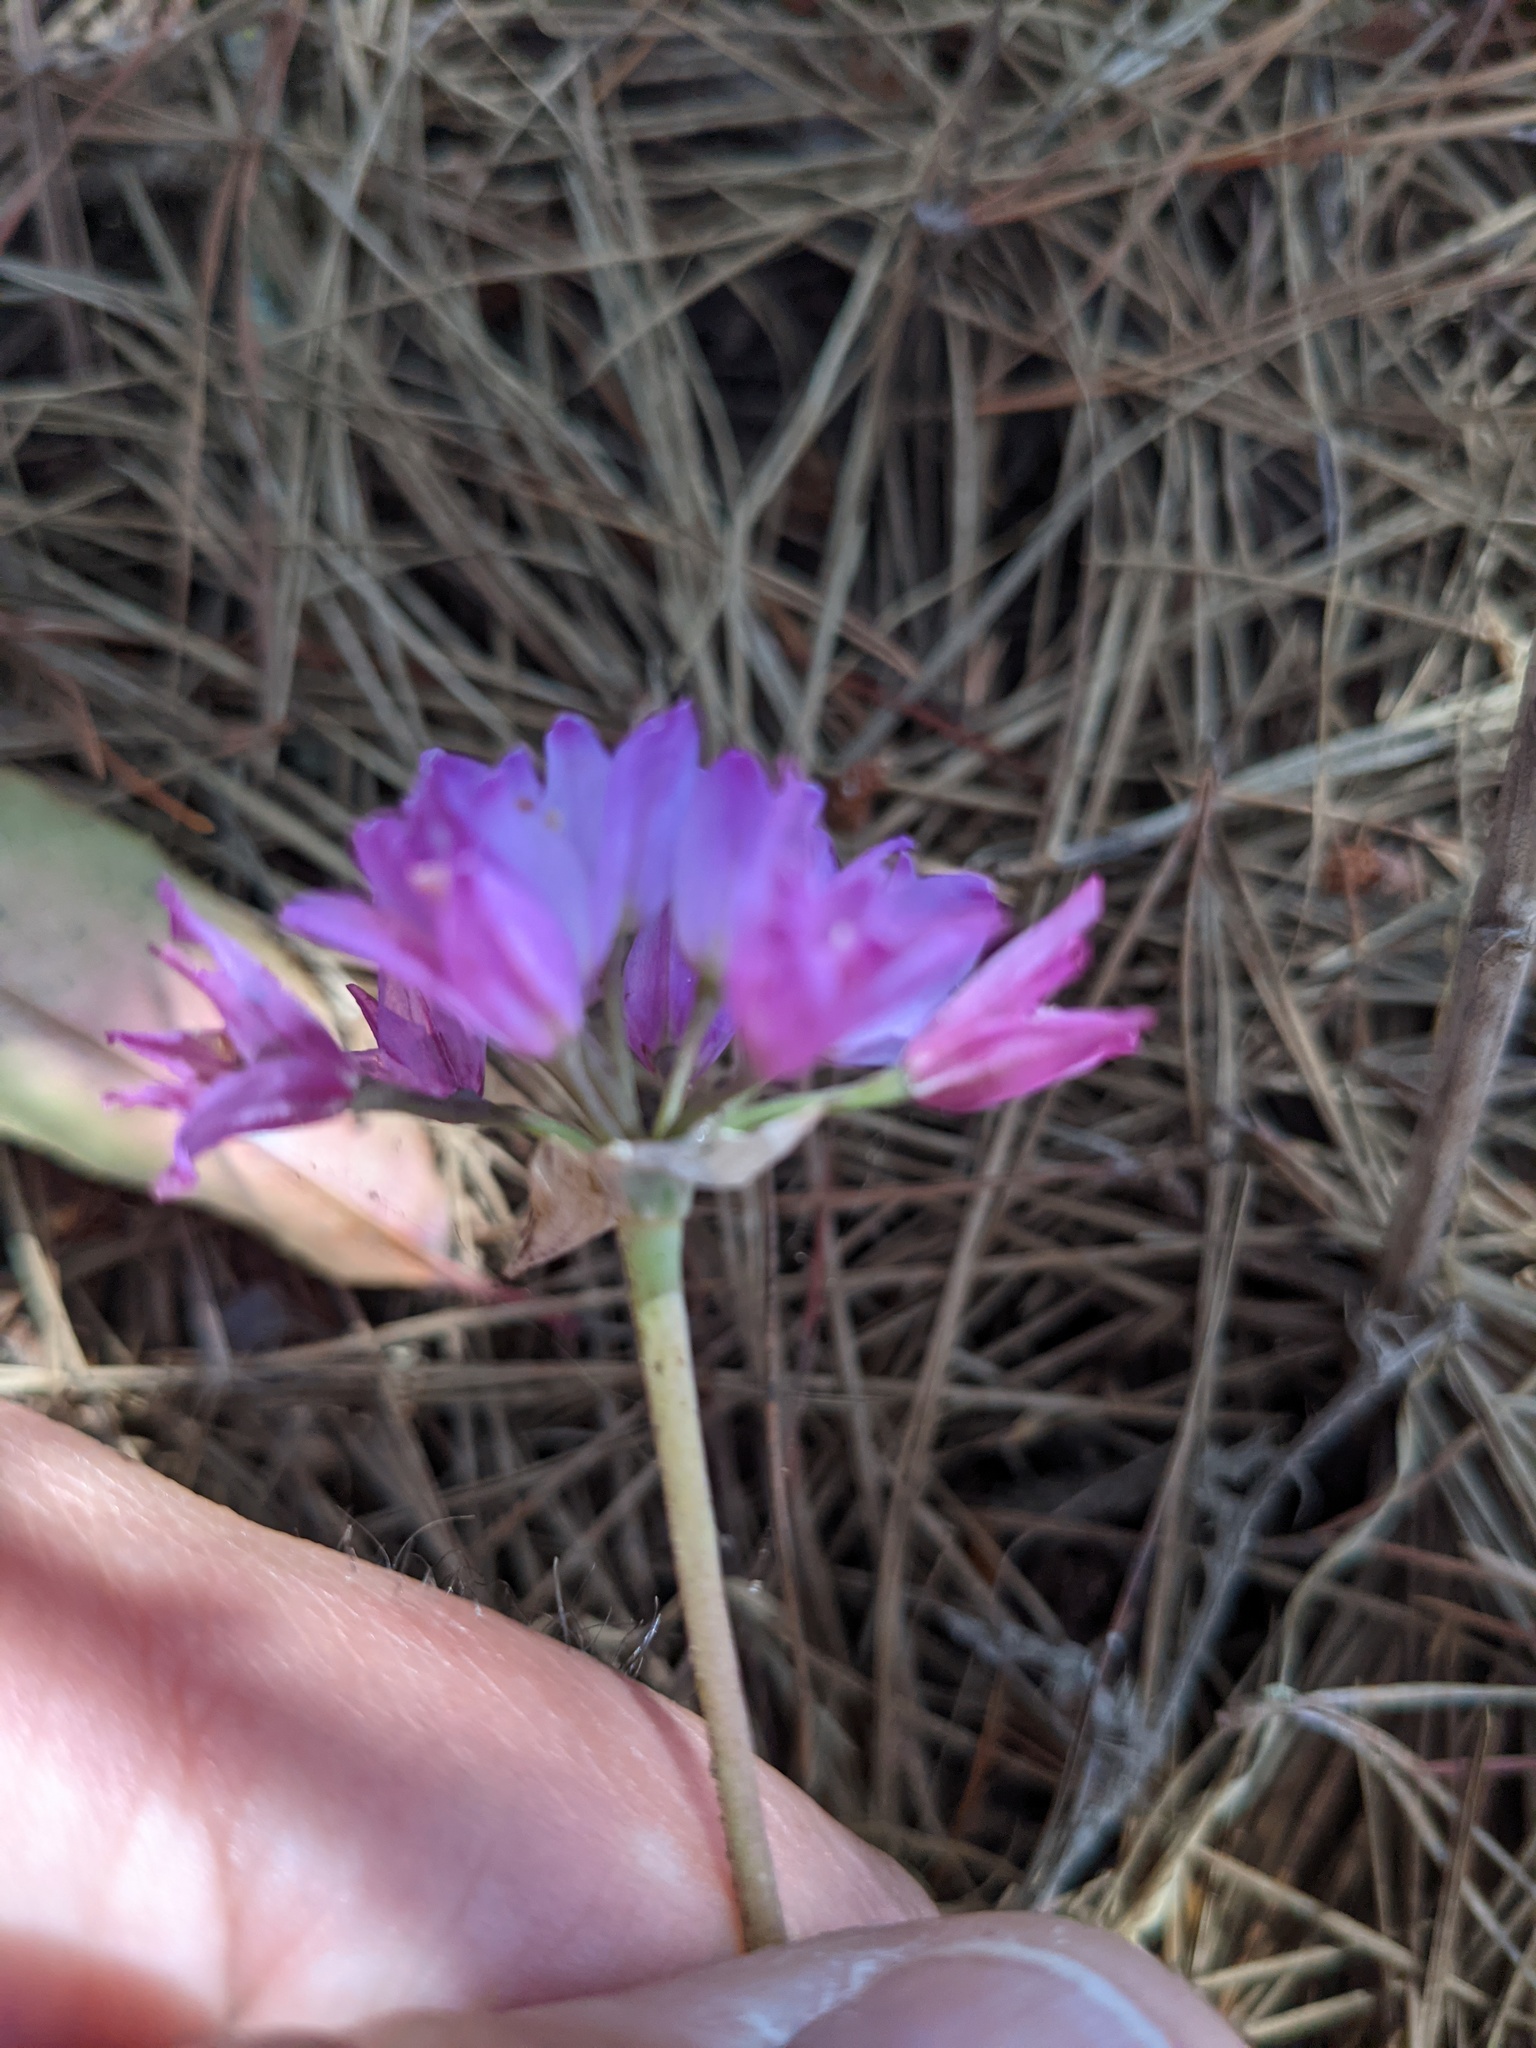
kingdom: Plantae
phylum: Tracheophyta
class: Liliopsida
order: Asparagales
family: Amaryllidaceae
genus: Allium
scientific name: Allium dichlamydeum
